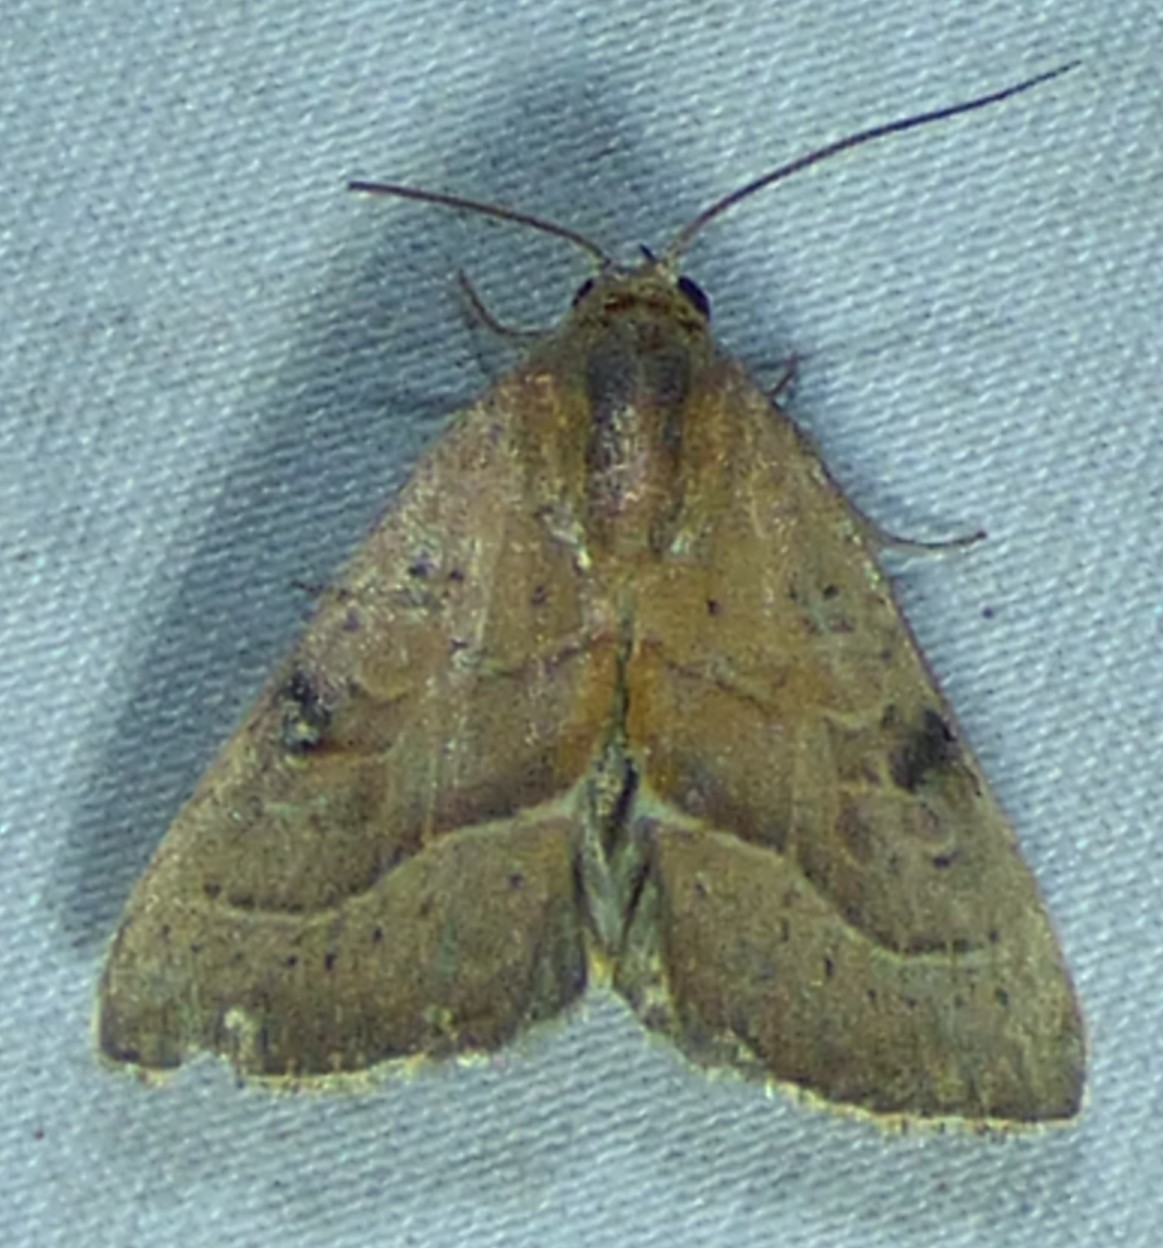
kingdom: Animalia
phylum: Arthropoda
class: Insecta
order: Lepidoptera
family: Noctuidae
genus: Galgula
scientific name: Galgula partita
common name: Wedgeling
